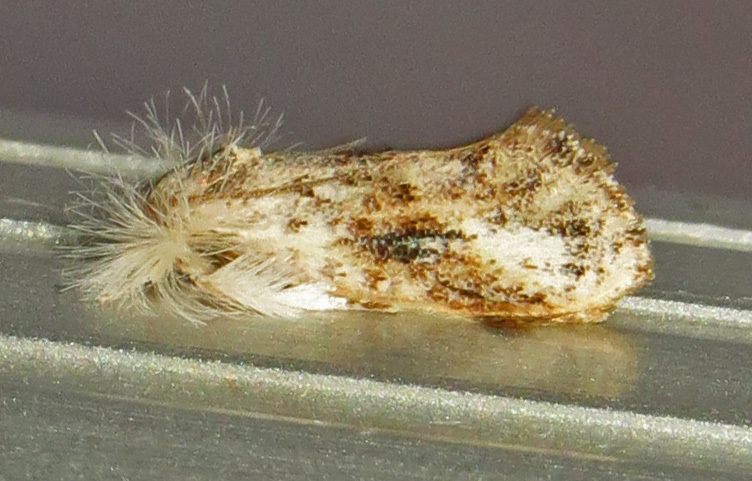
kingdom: Animalia
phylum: Arthropoda
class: Insecta
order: Lepidoptera
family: Tineidae
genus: Acrolophus
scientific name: Acrolophus mycetophagus
